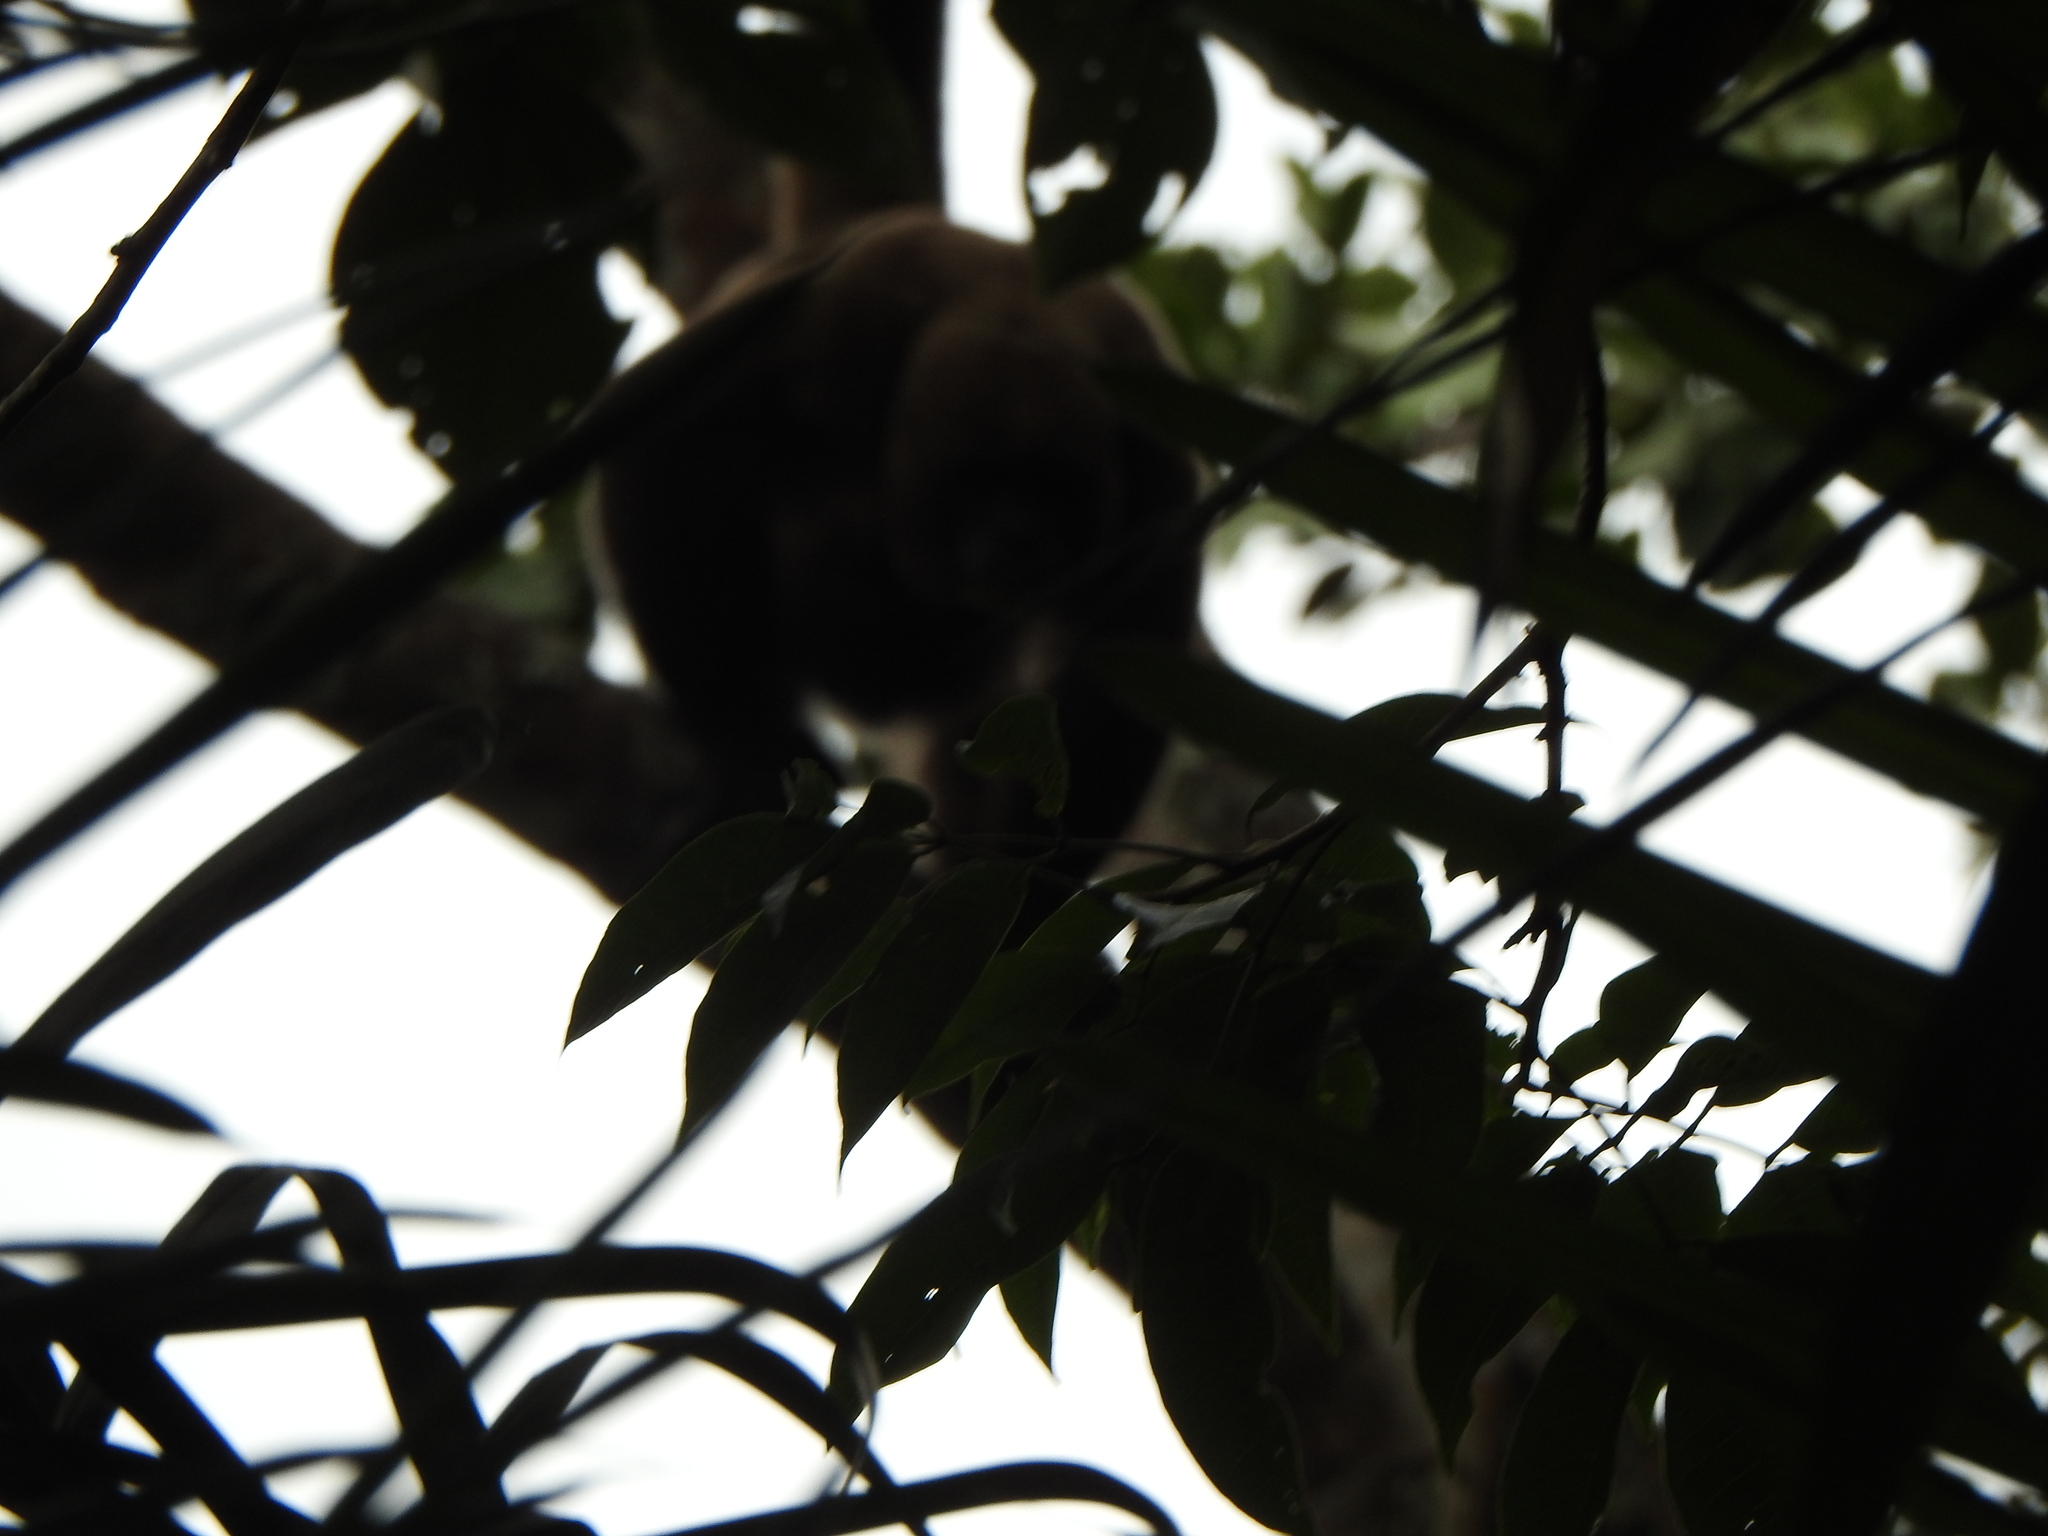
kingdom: Animalia
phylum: Chordata
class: Mammalia
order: Primates
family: Atelidae
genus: Lagothrix
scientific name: Lagothrix lagothricha
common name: Brown woolly monkey
